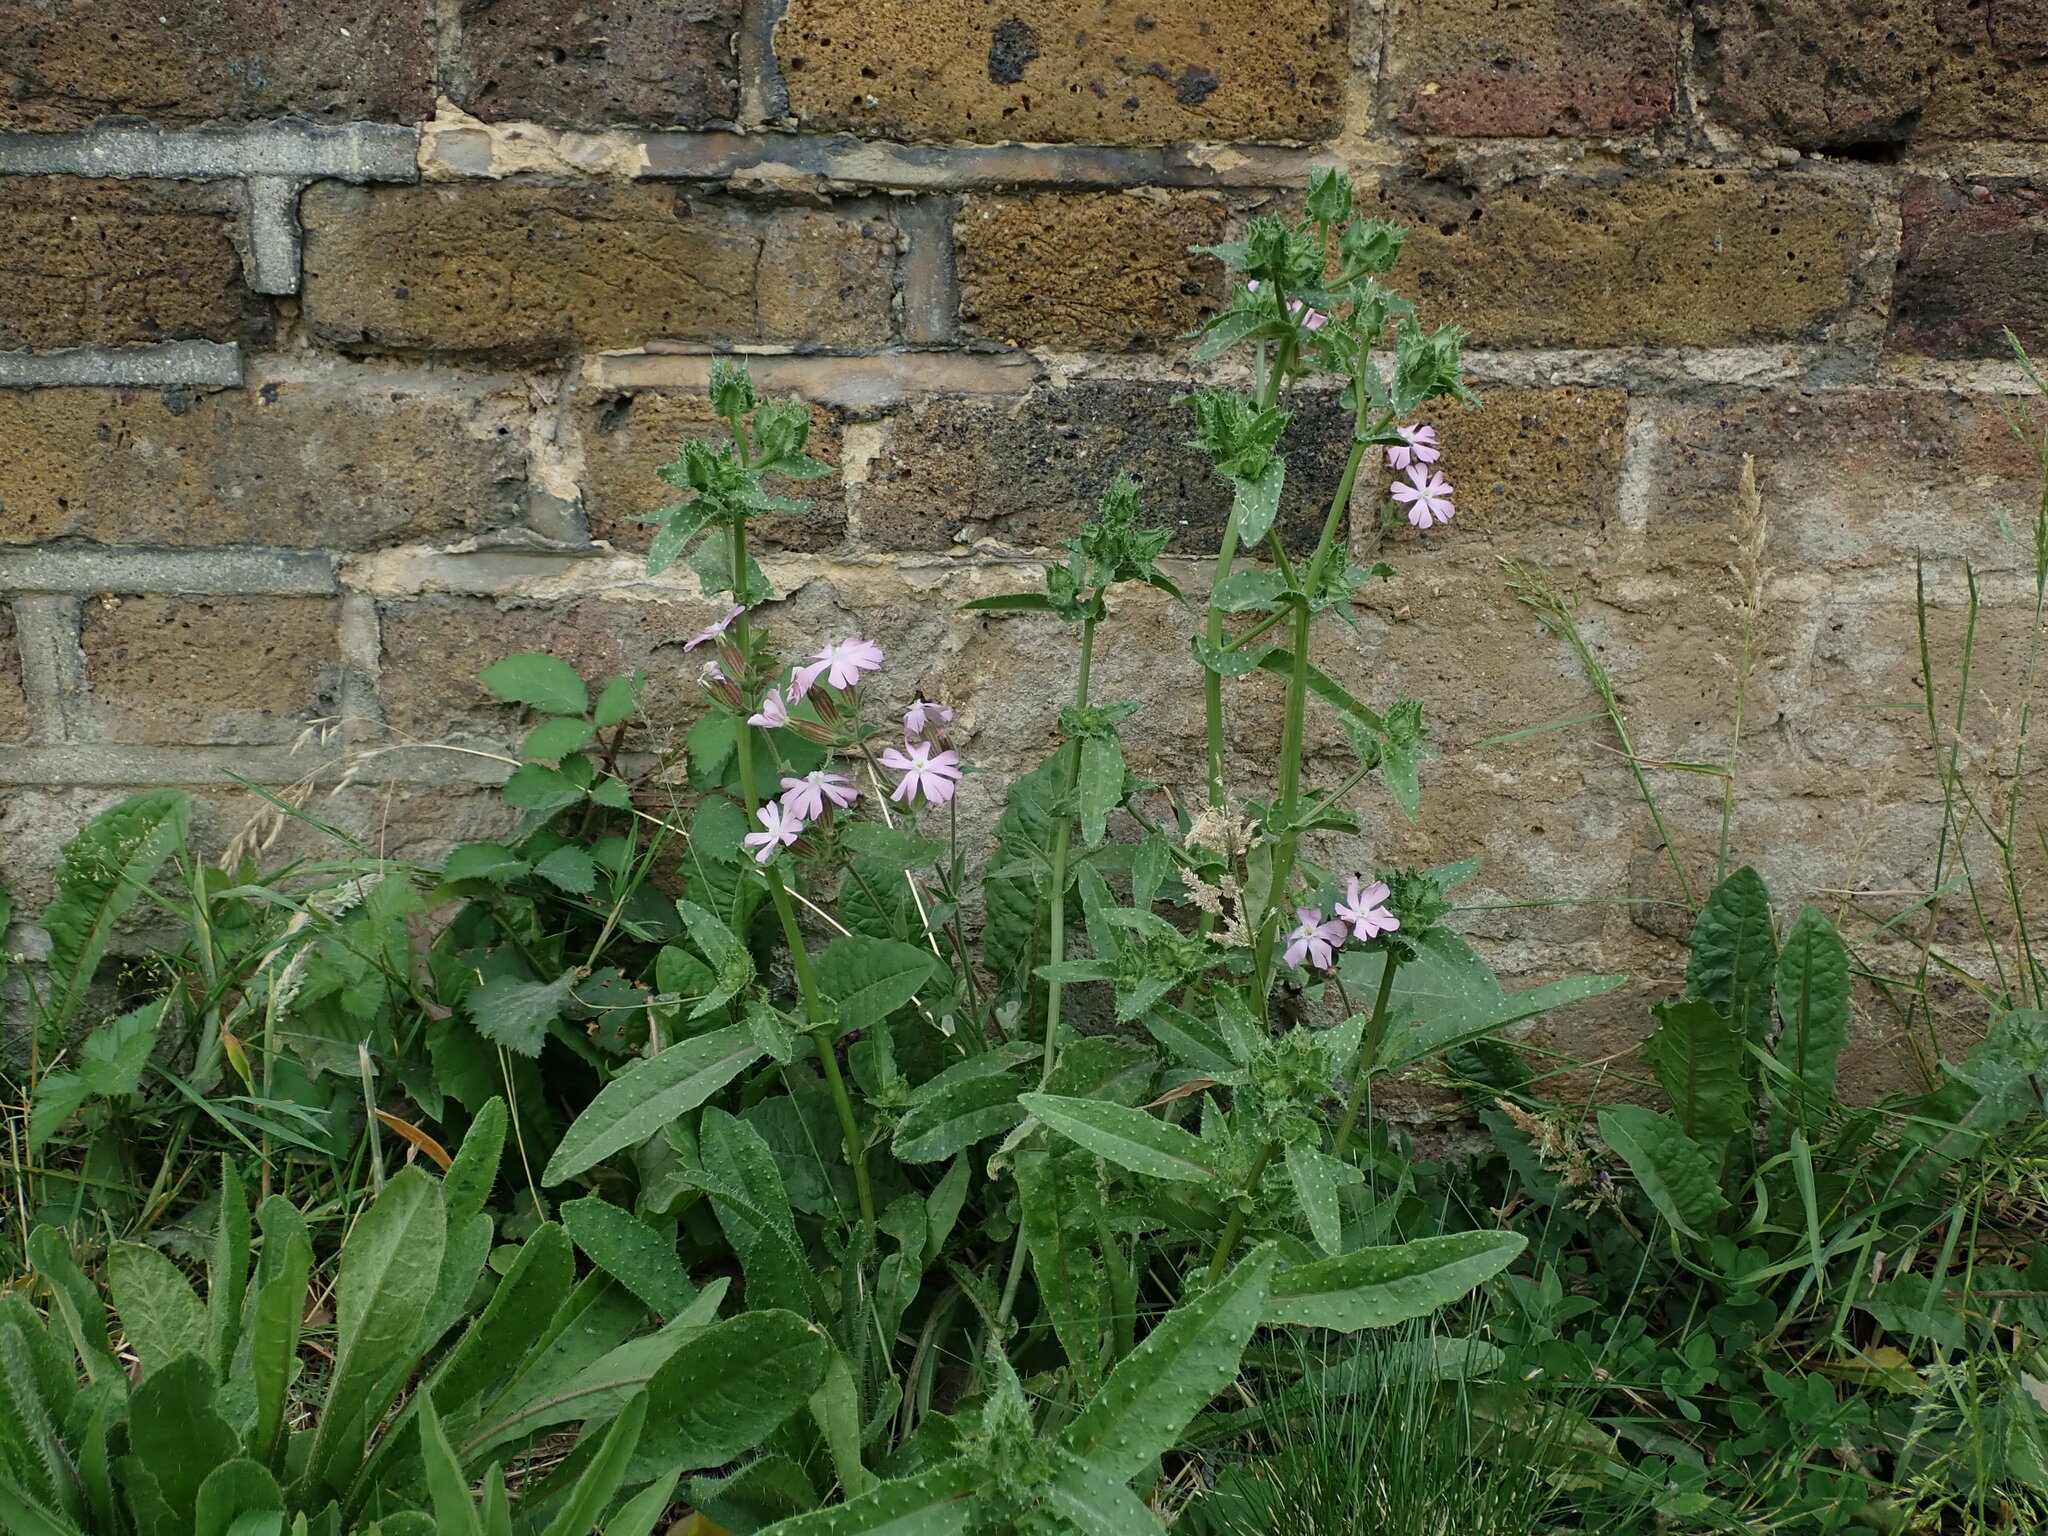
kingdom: Plantae
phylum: Tracheophyta
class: Magnoliopsida
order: Caryophyllales
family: Caryophyllaceae
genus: Silene
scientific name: Silene hampeana
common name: Catchfly
